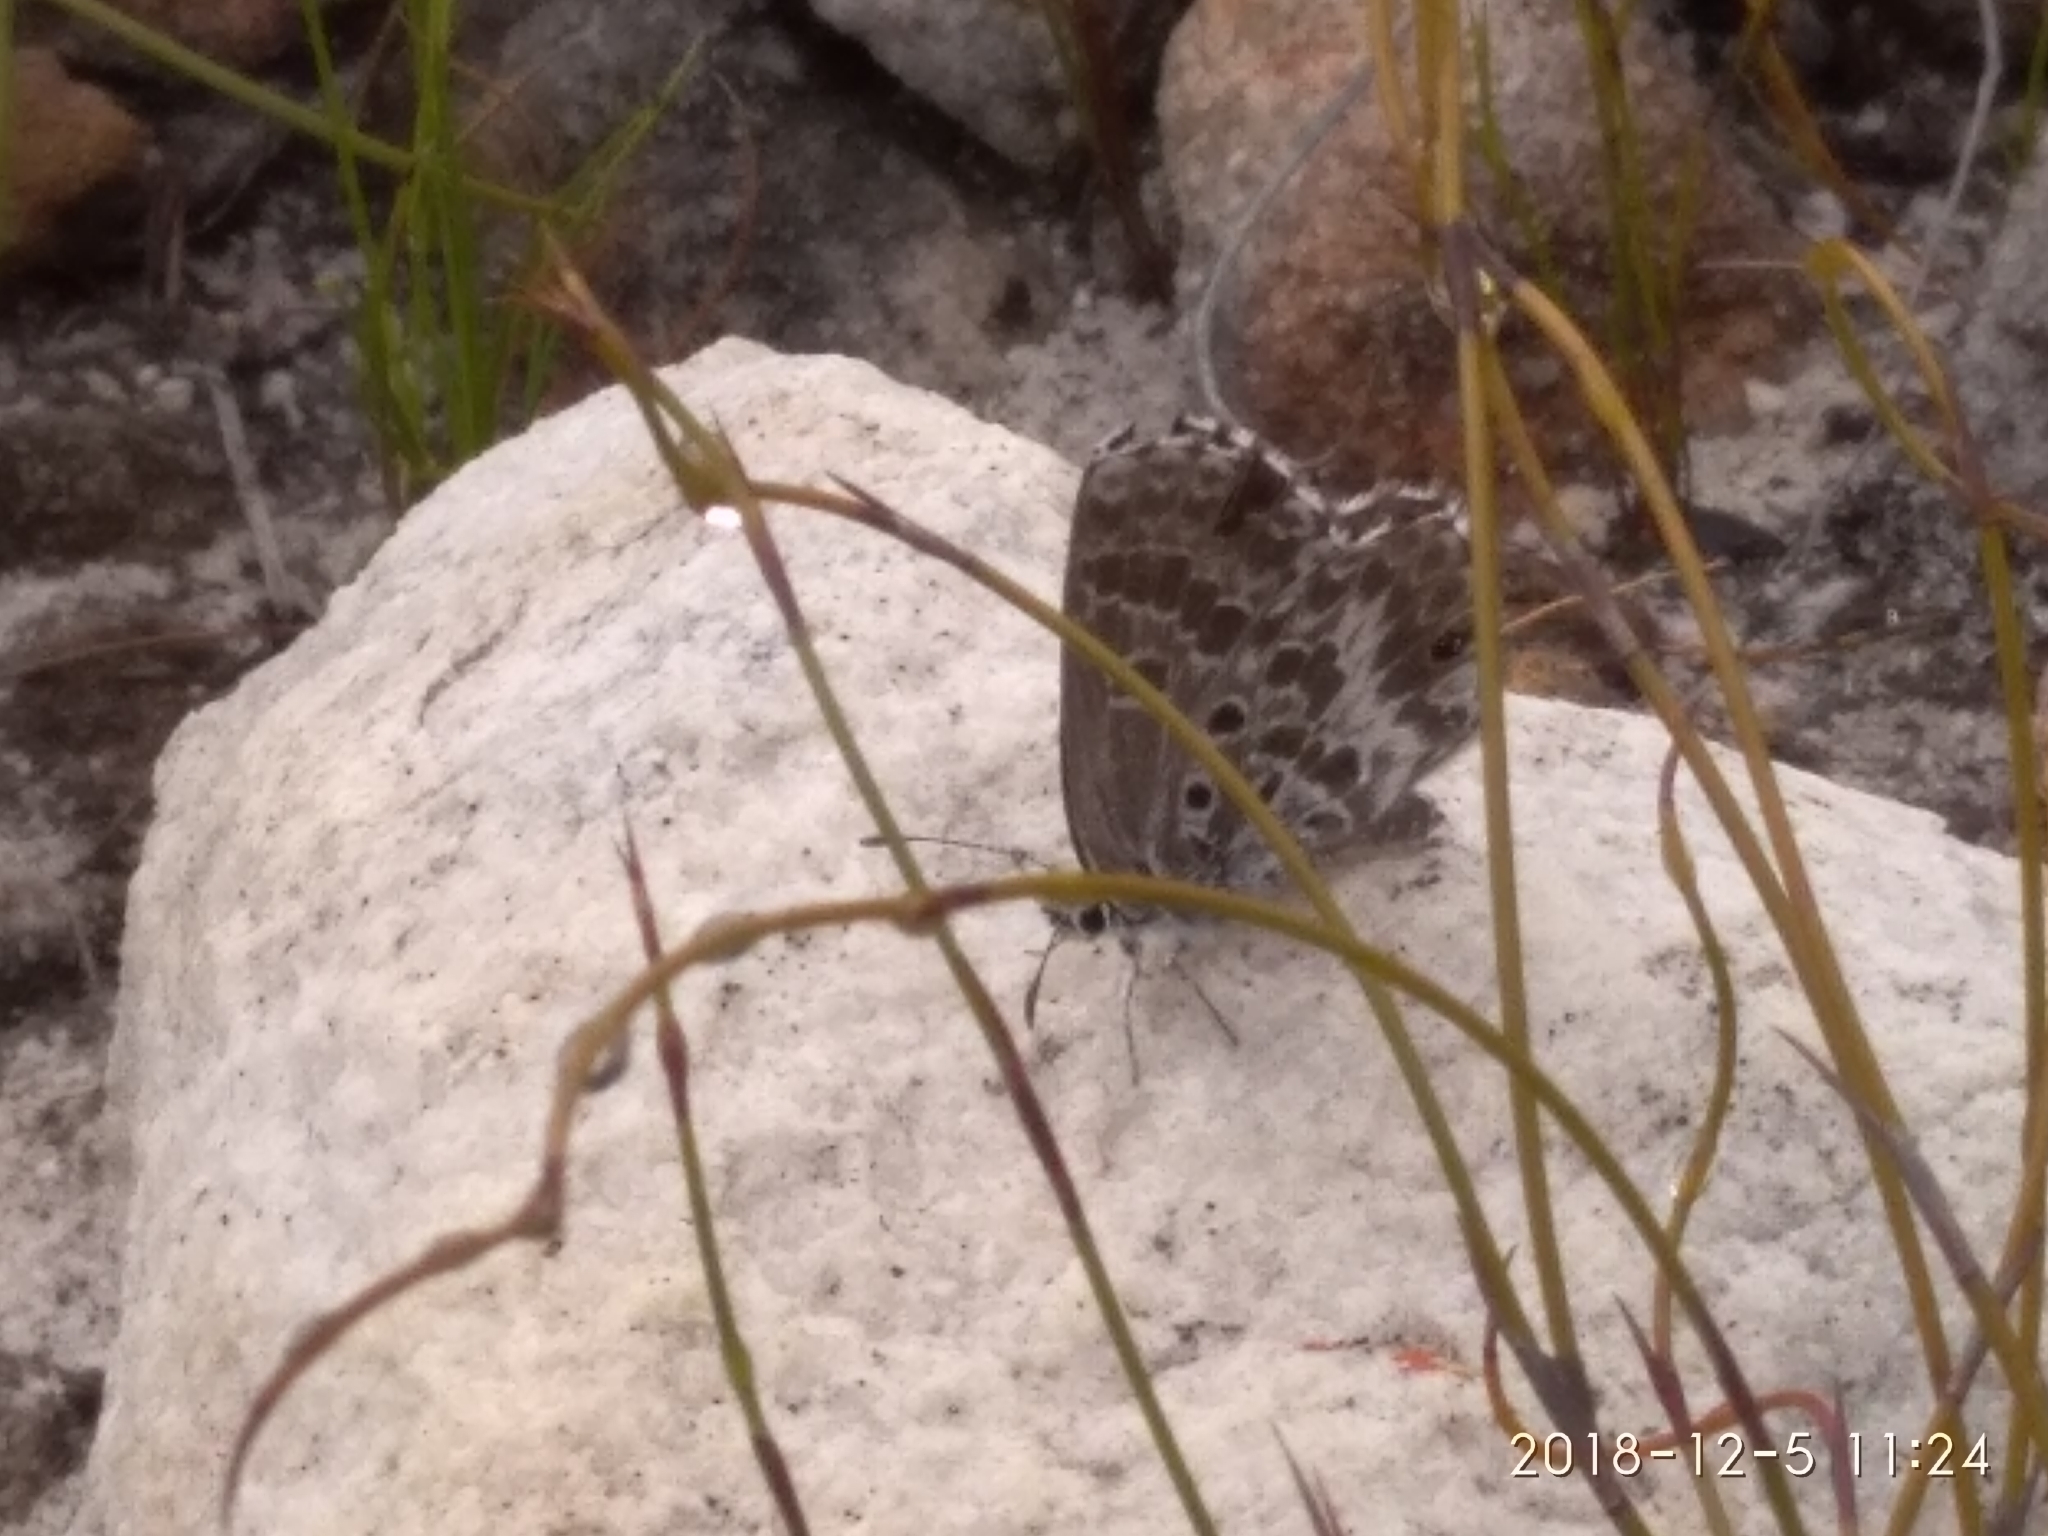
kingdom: Animalia
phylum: Arthropoda
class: Insecta
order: Lepidoptera
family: Lycaenidae
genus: Lepidochrysops
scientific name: Lepidochrysops
